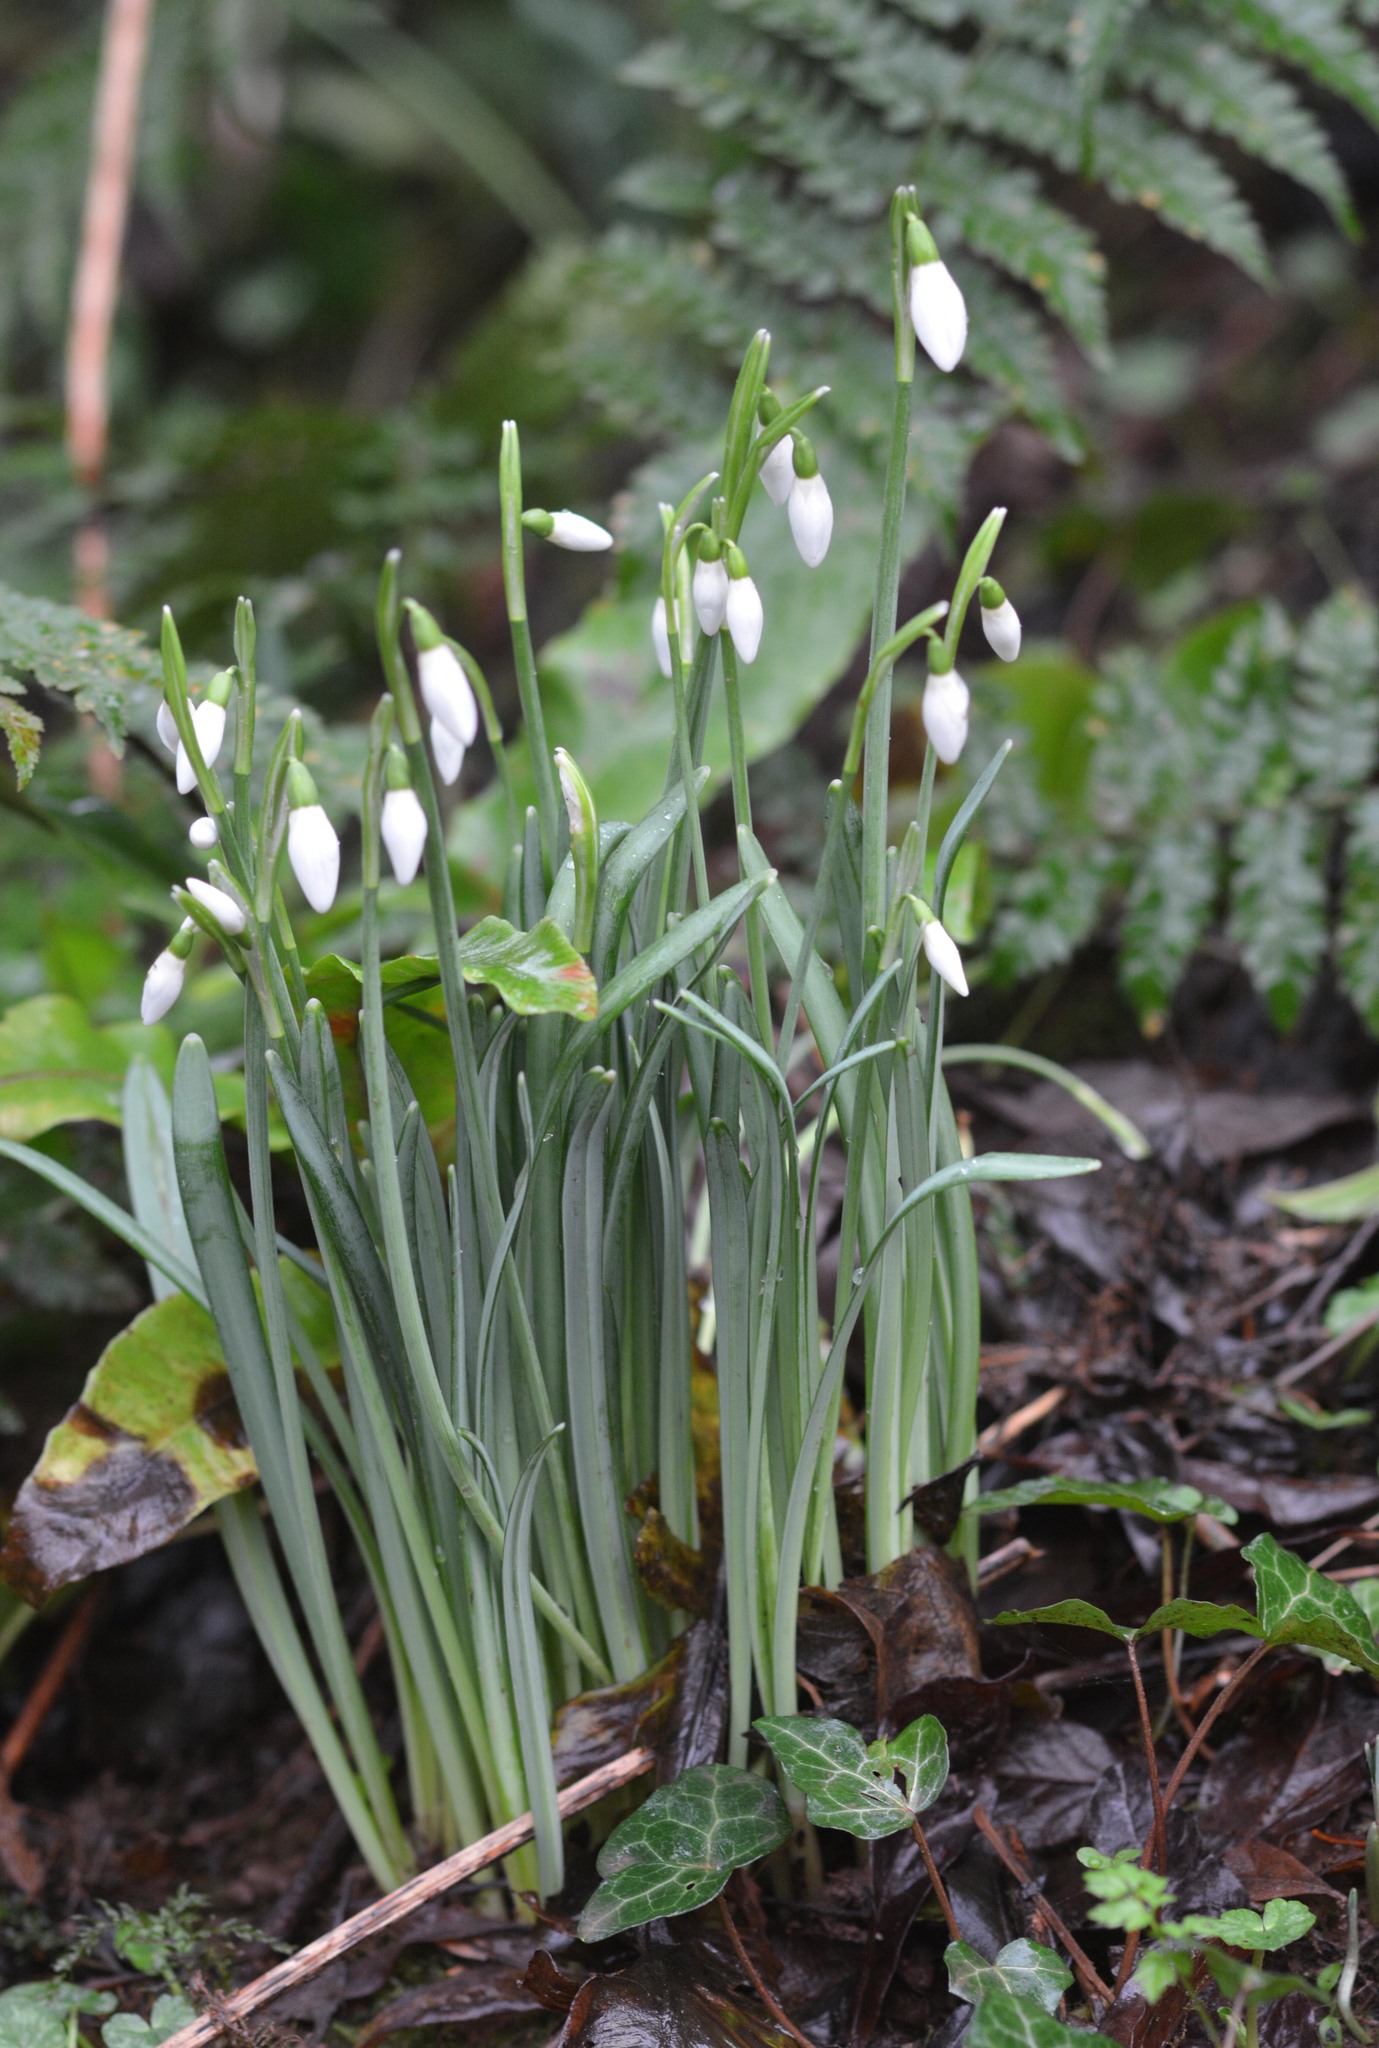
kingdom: Plantae
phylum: Tracheophyta
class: Liliopsida
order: Asparagales
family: Amaryllidaceae
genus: Galanthus
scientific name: Galanthus nivalis
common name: Snowdrop
